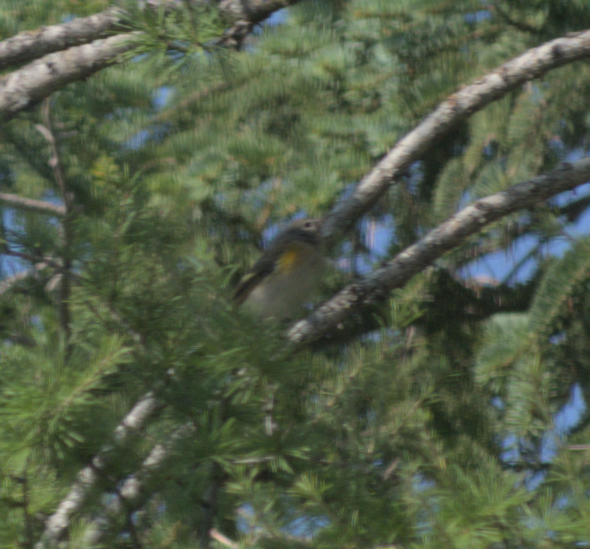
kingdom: Animalia
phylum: Chordata
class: Aves
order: Passeriformes
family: Parulidae
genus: Setophaga
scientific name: Setophaga ruticilla
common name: American redstart
